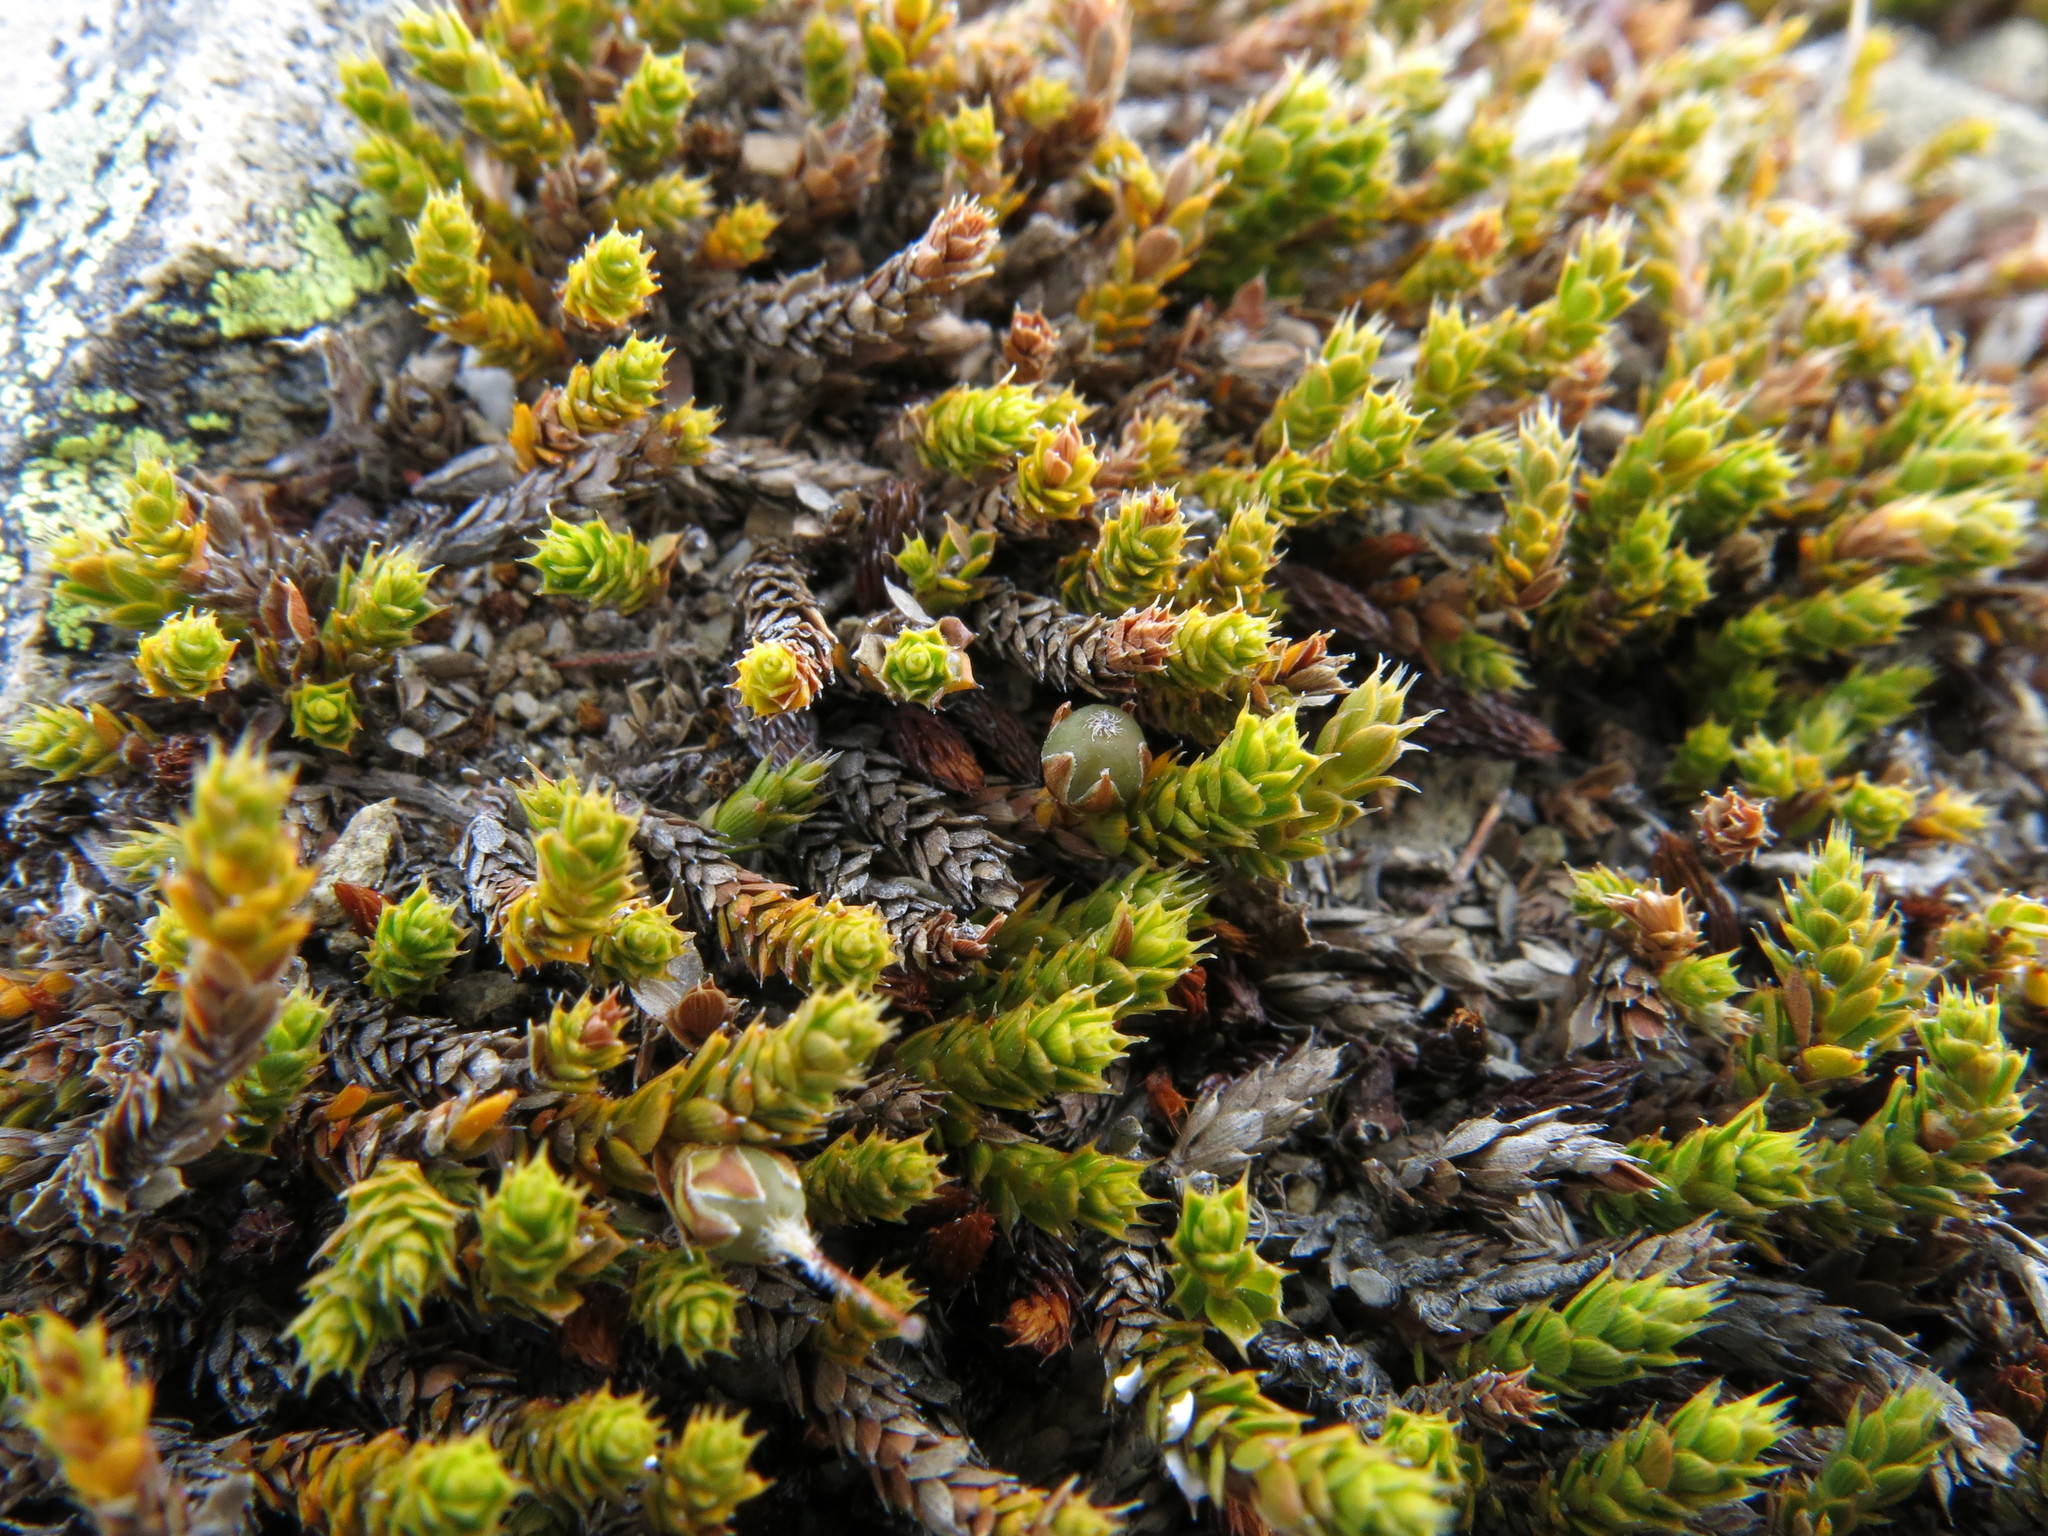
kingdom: Plantae
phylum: Tracheophyta
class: Magnoliopsida
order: Ericales
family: Ericaceae
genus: Styphelia
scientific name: Styphelia nana
